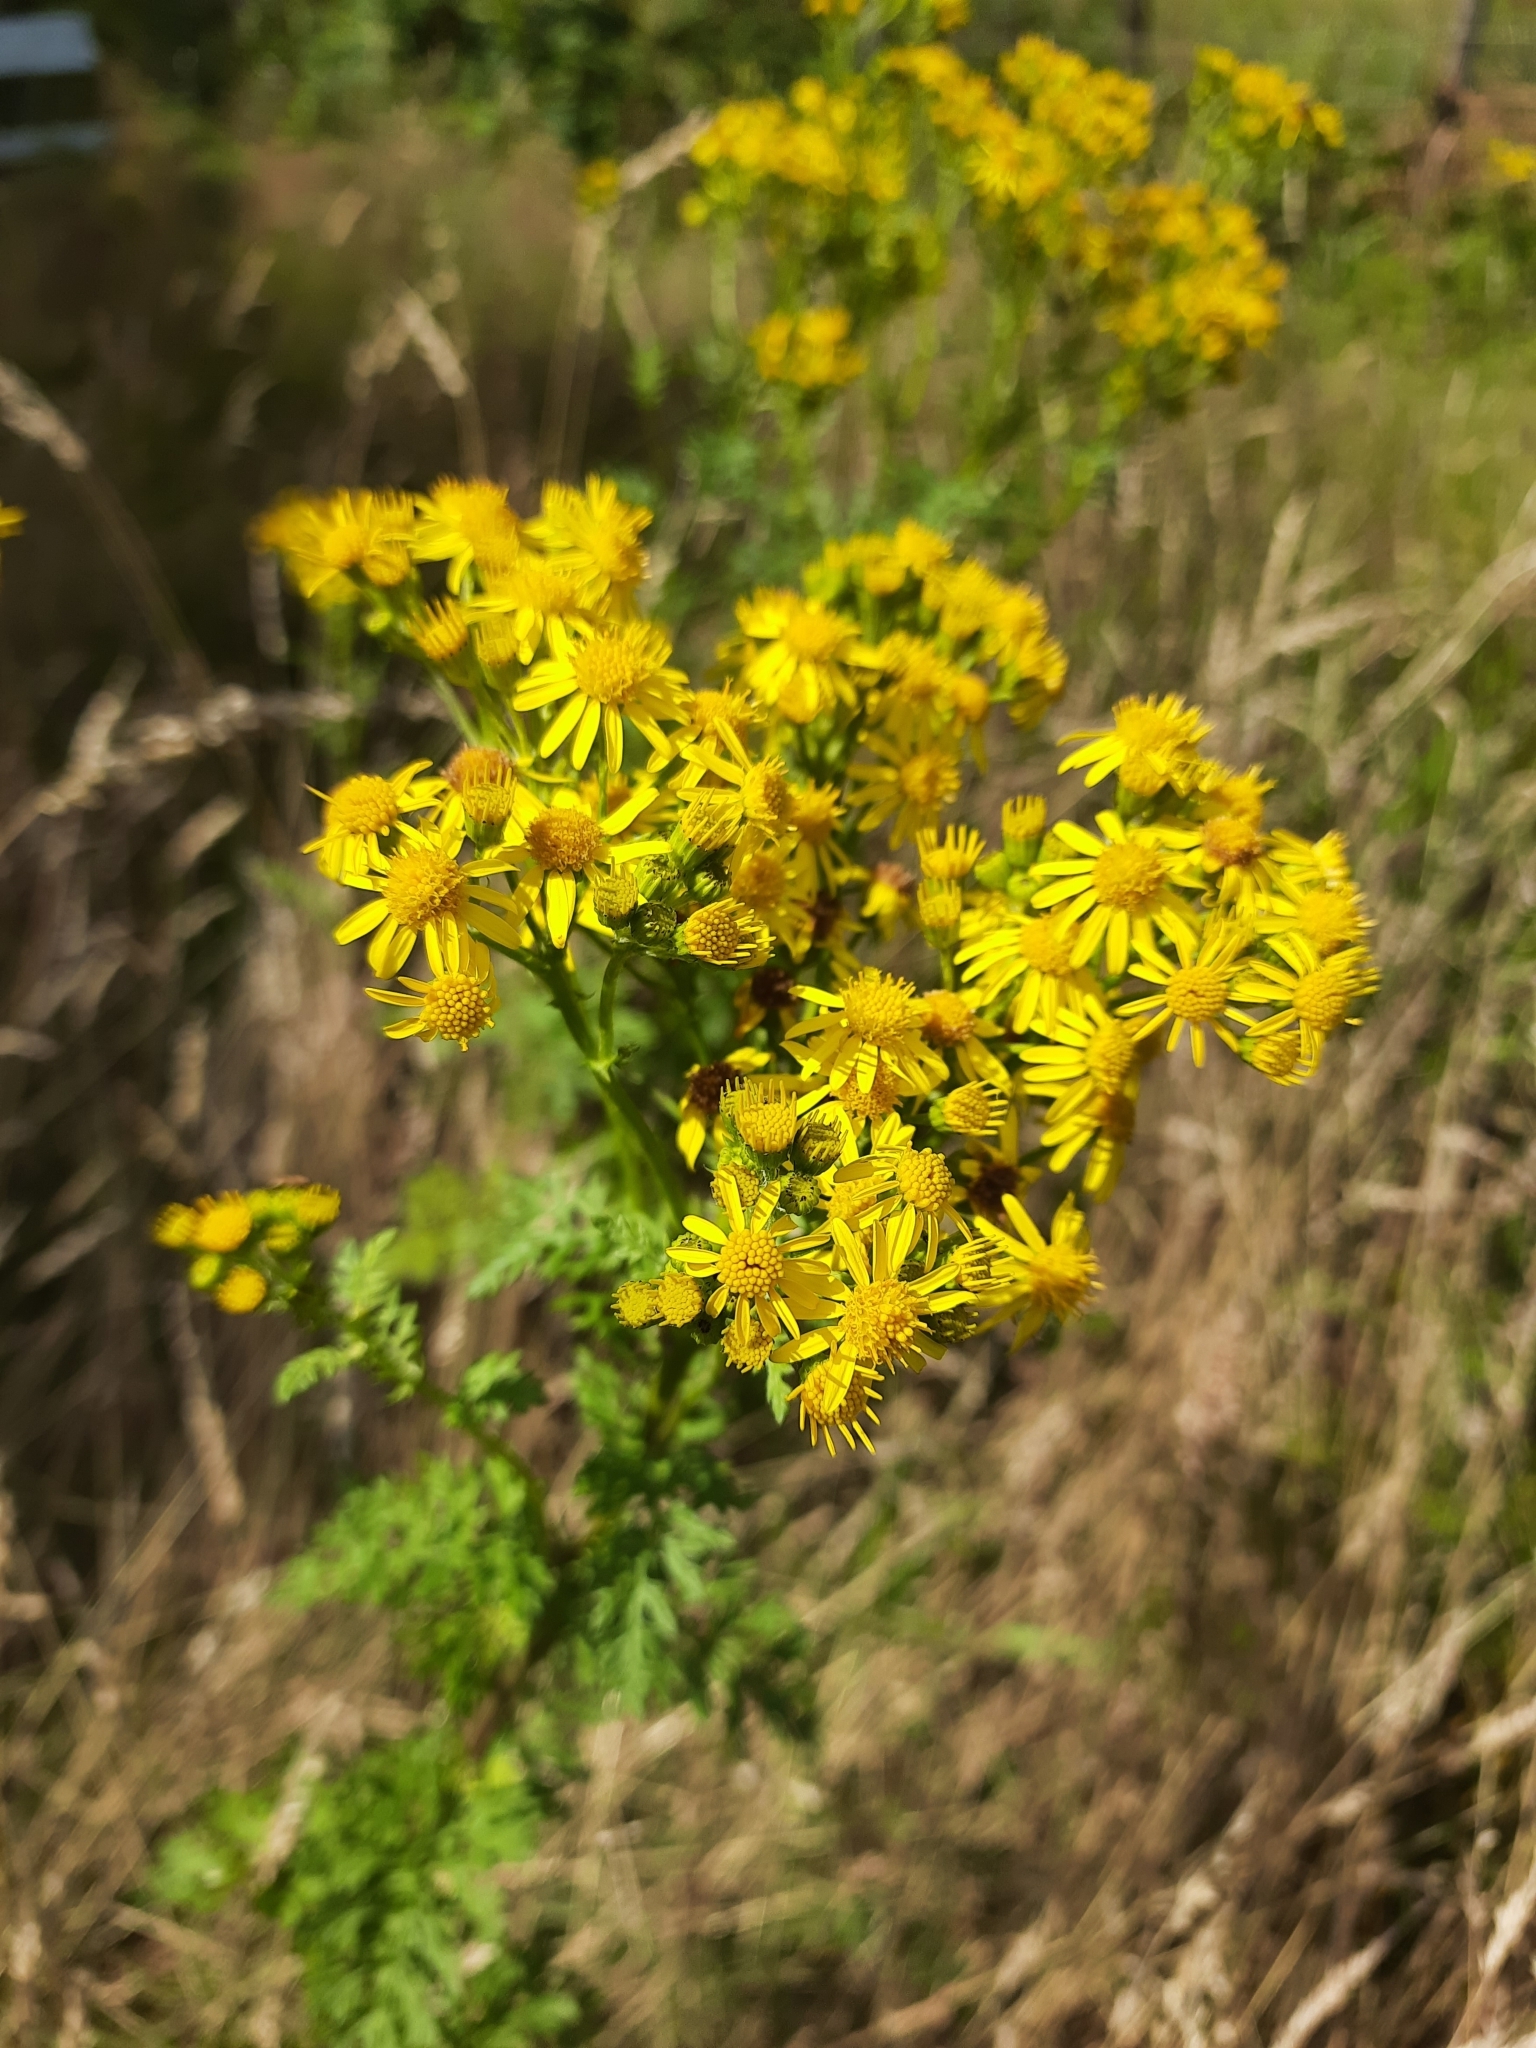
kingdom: Plantae
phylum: Tracheophyta
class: Magnoliopsida
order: Asterales
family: Asteraceae
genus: Jacobaea
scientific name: Jacobaea vulgaris
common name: Stinking willie
